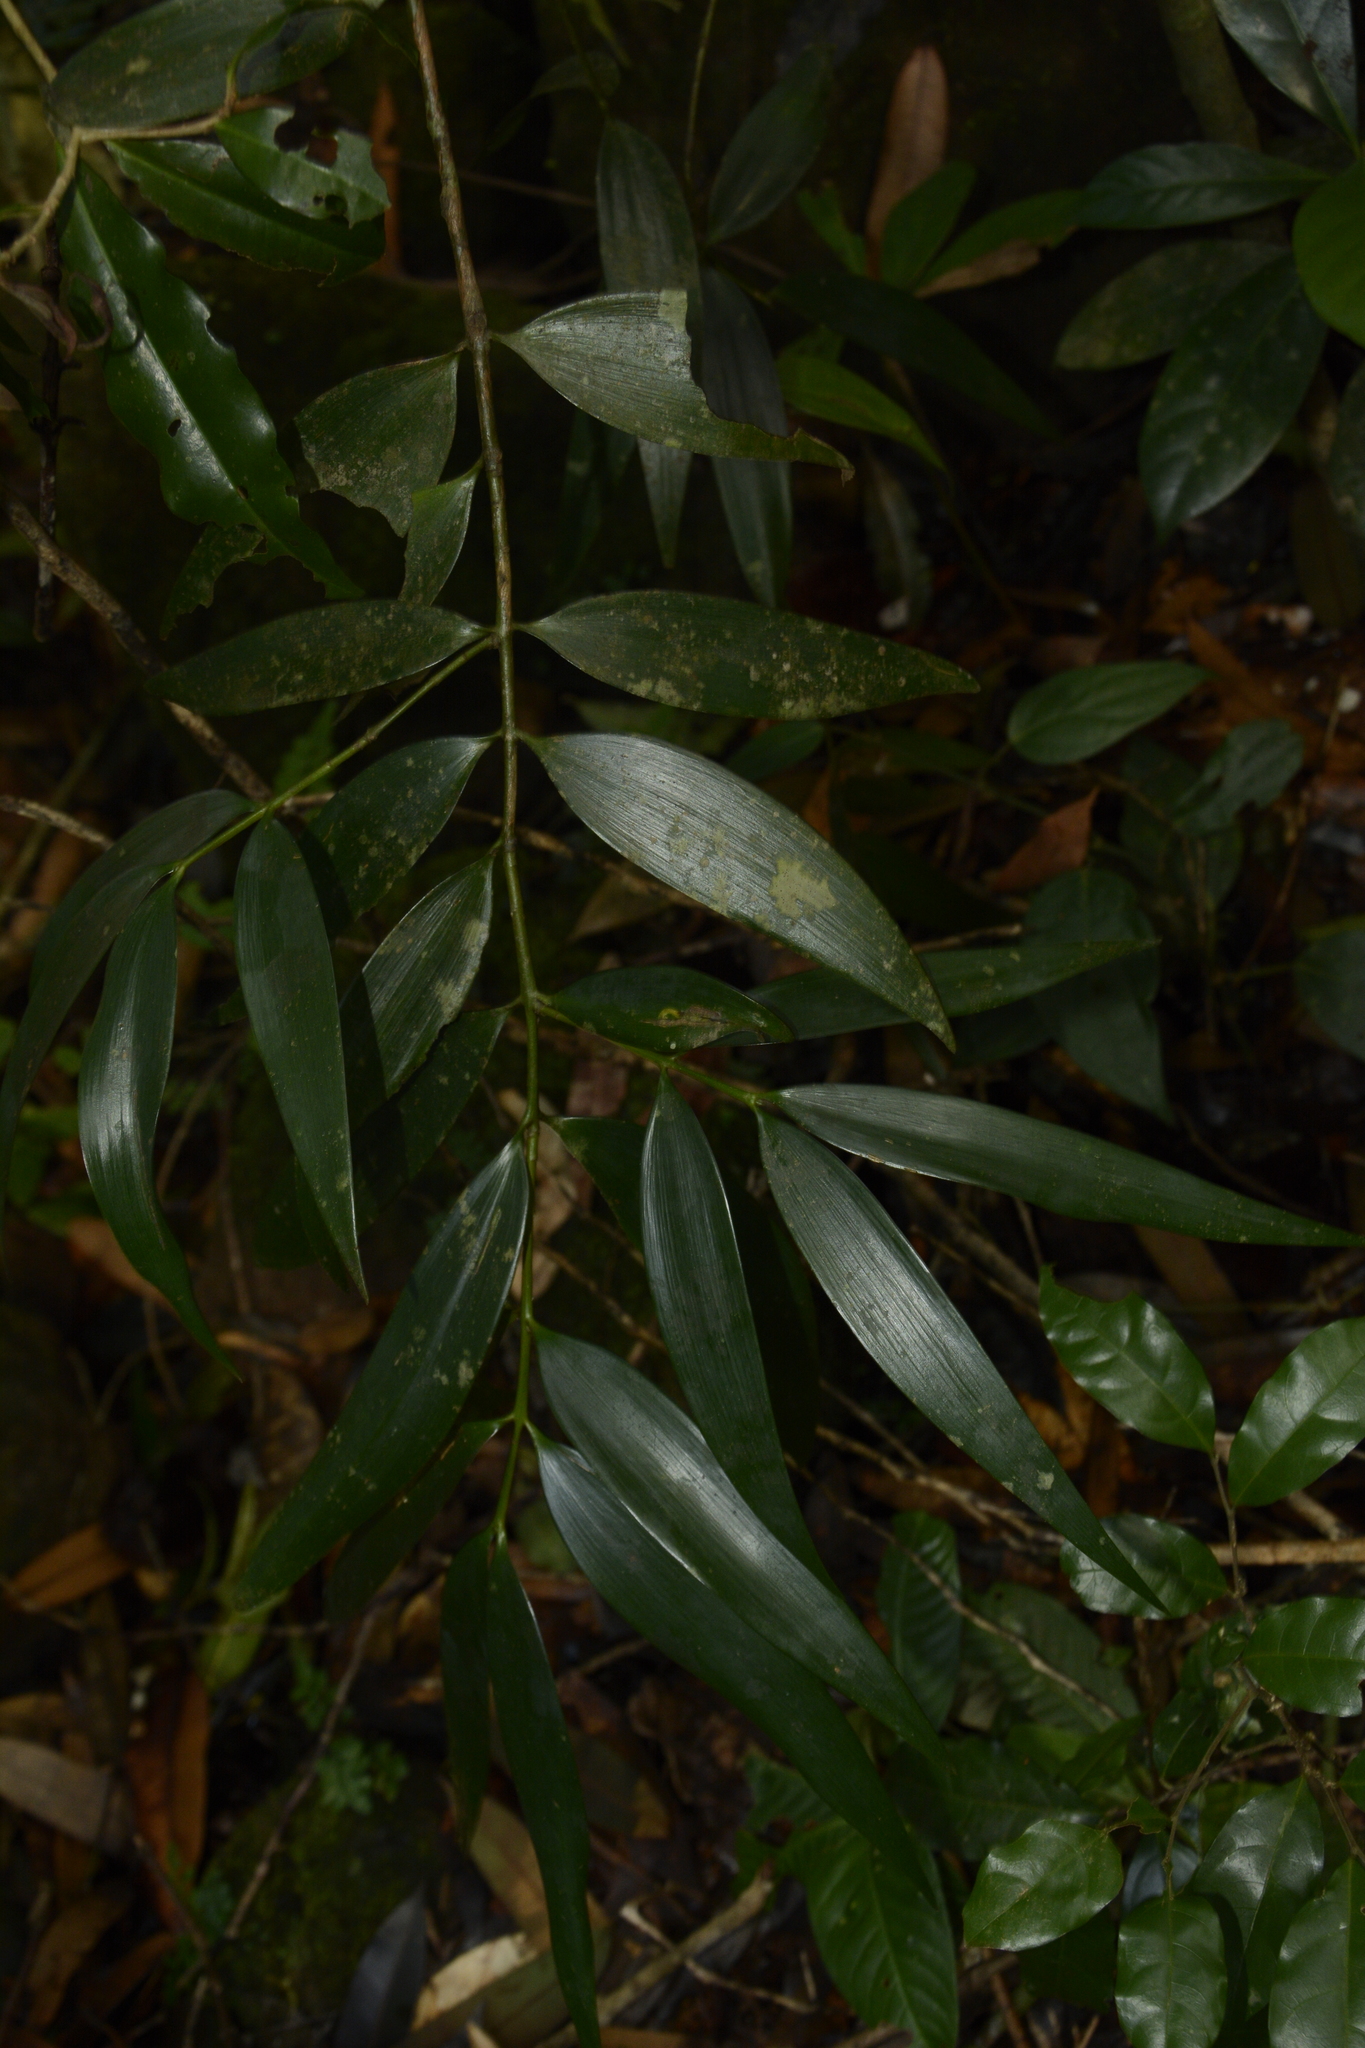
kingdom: Plantae
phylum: Tracheophyta
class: Pinopsida
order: Pinales
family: Podocarpaceae
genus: Nageia
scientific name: Nageia wallichiana
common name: Brown's-pine
